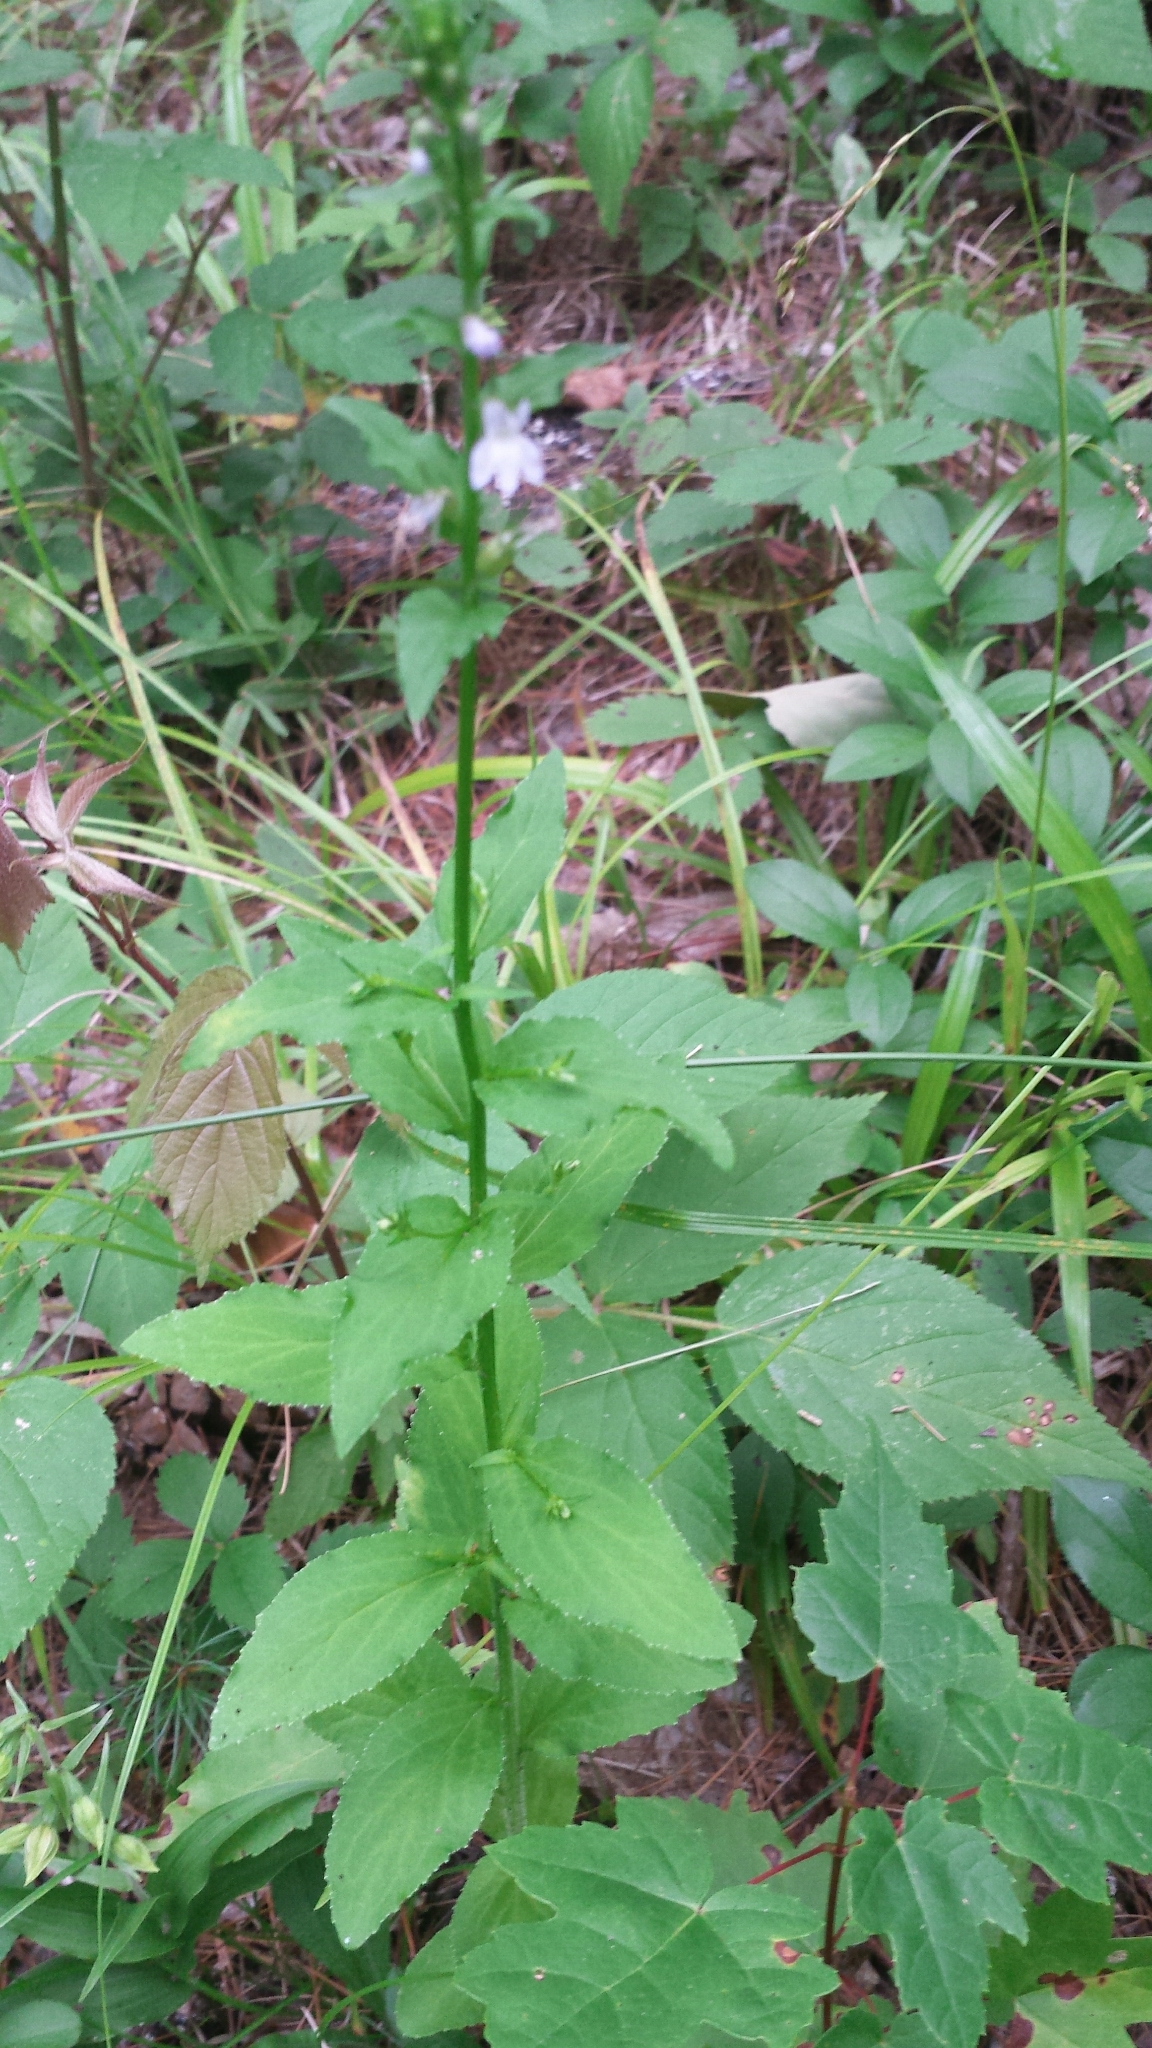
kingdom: Plantae
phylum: Tracheophyta
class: Magnoliopsida
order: Asterales
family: Campanulaceae
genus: Lobelia
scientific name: Lobelia inflata
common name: Indian tobacco
